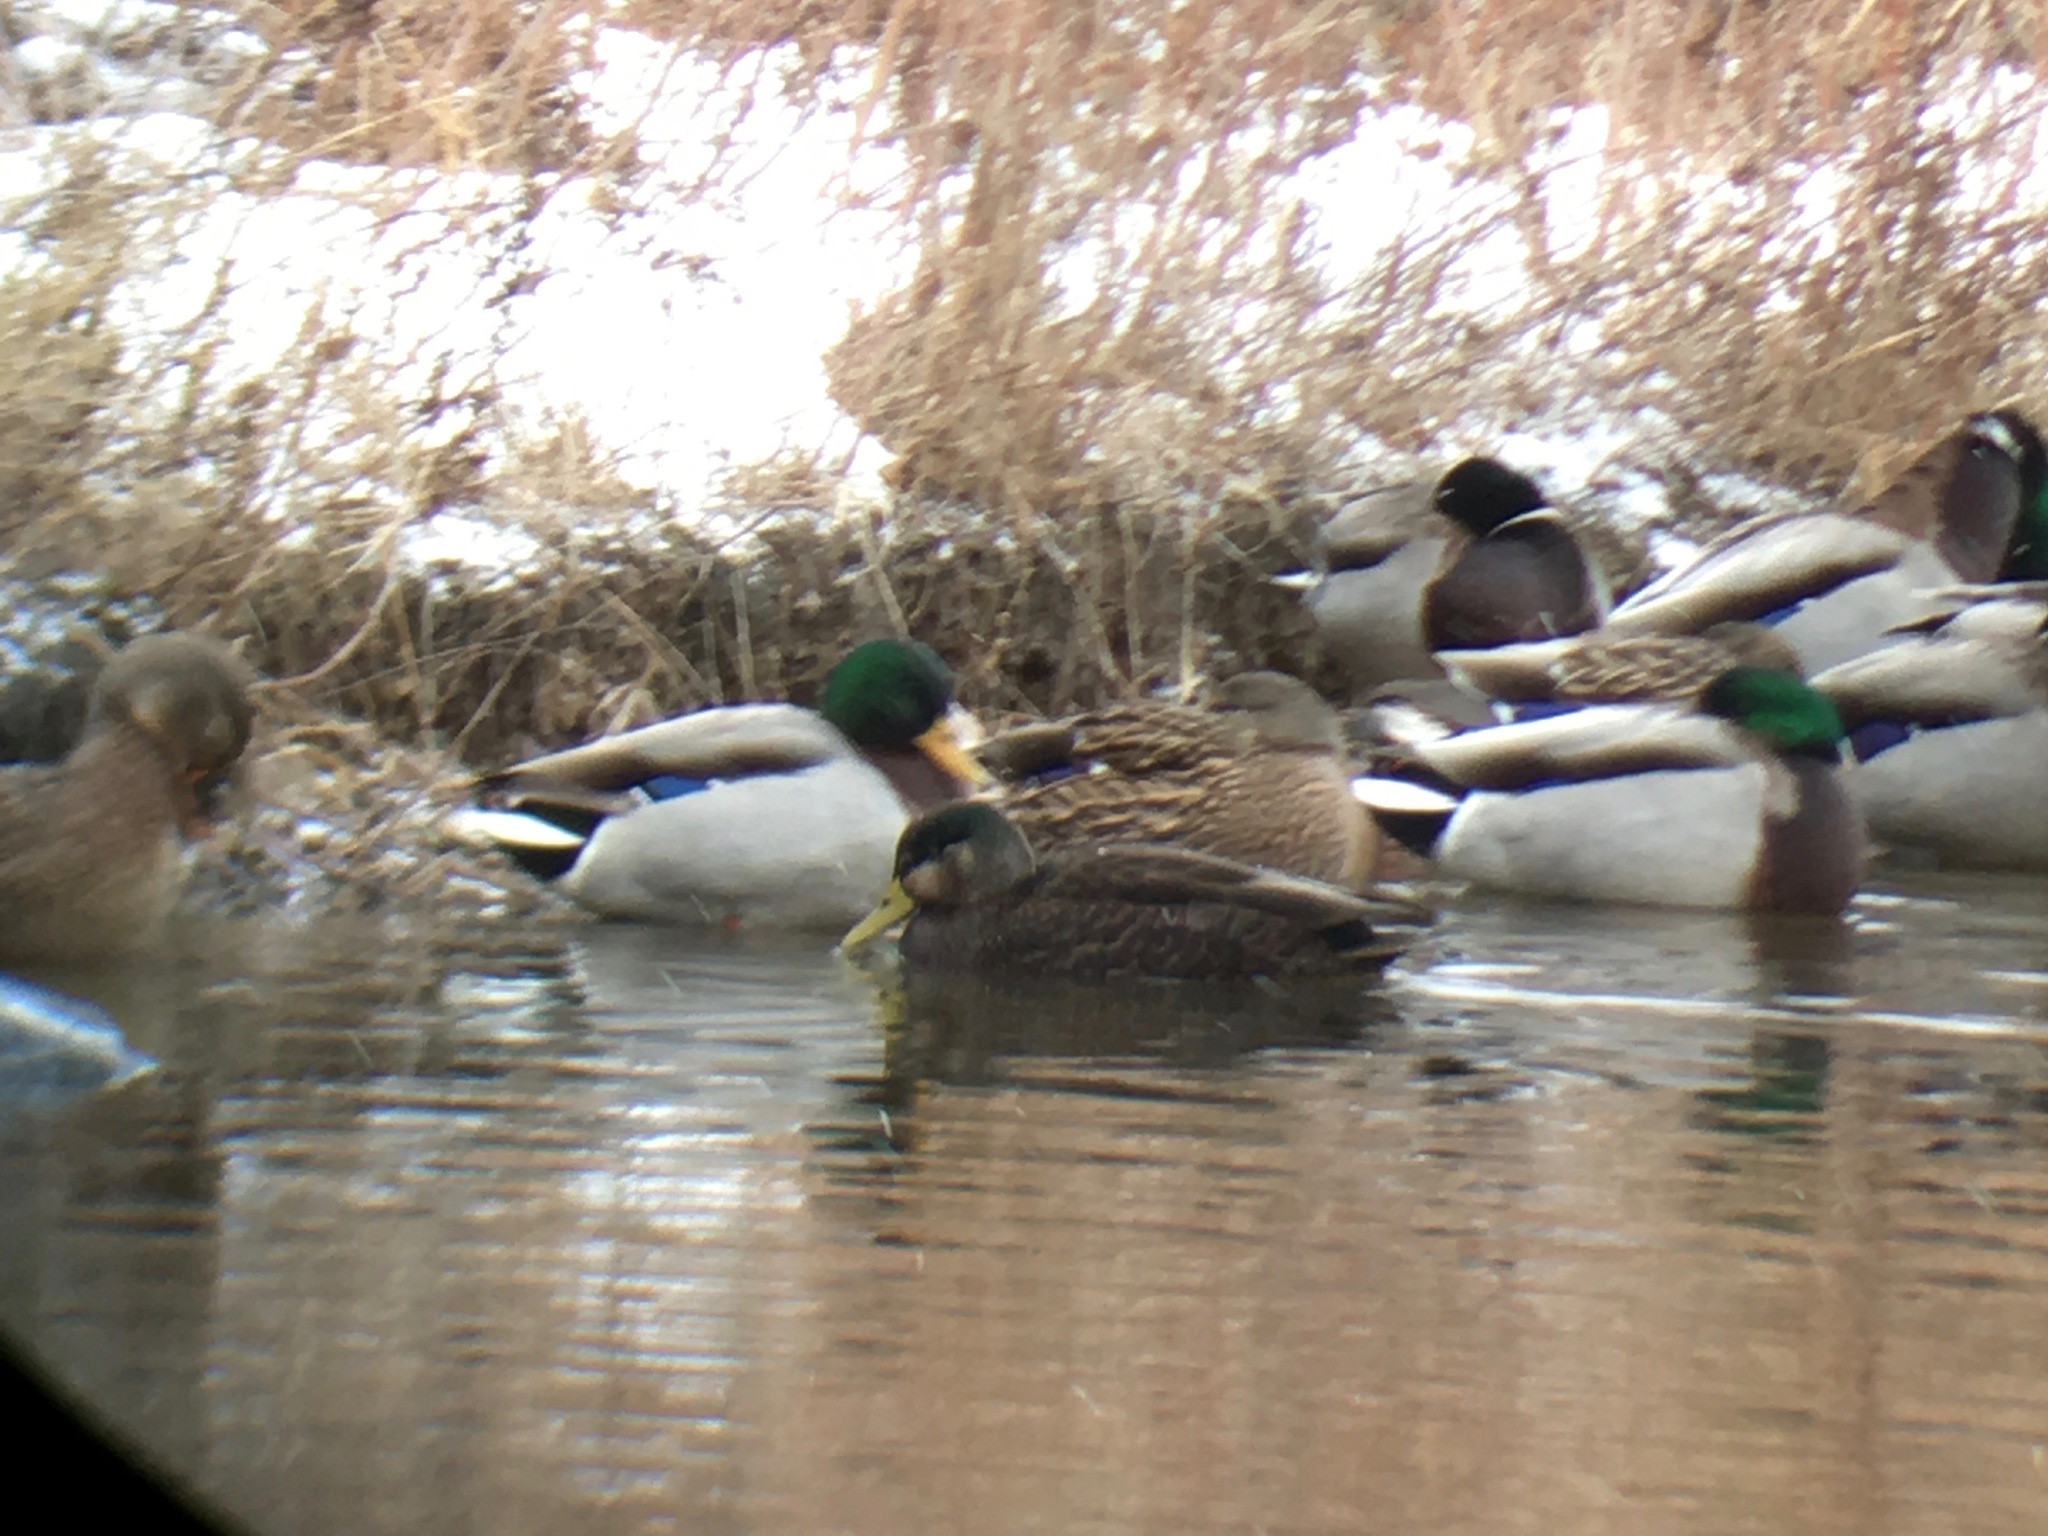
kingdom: Animalia
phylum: Chordata
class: Aves
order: Anseriformes
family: Anatidae
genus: Anas
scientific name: Anas
